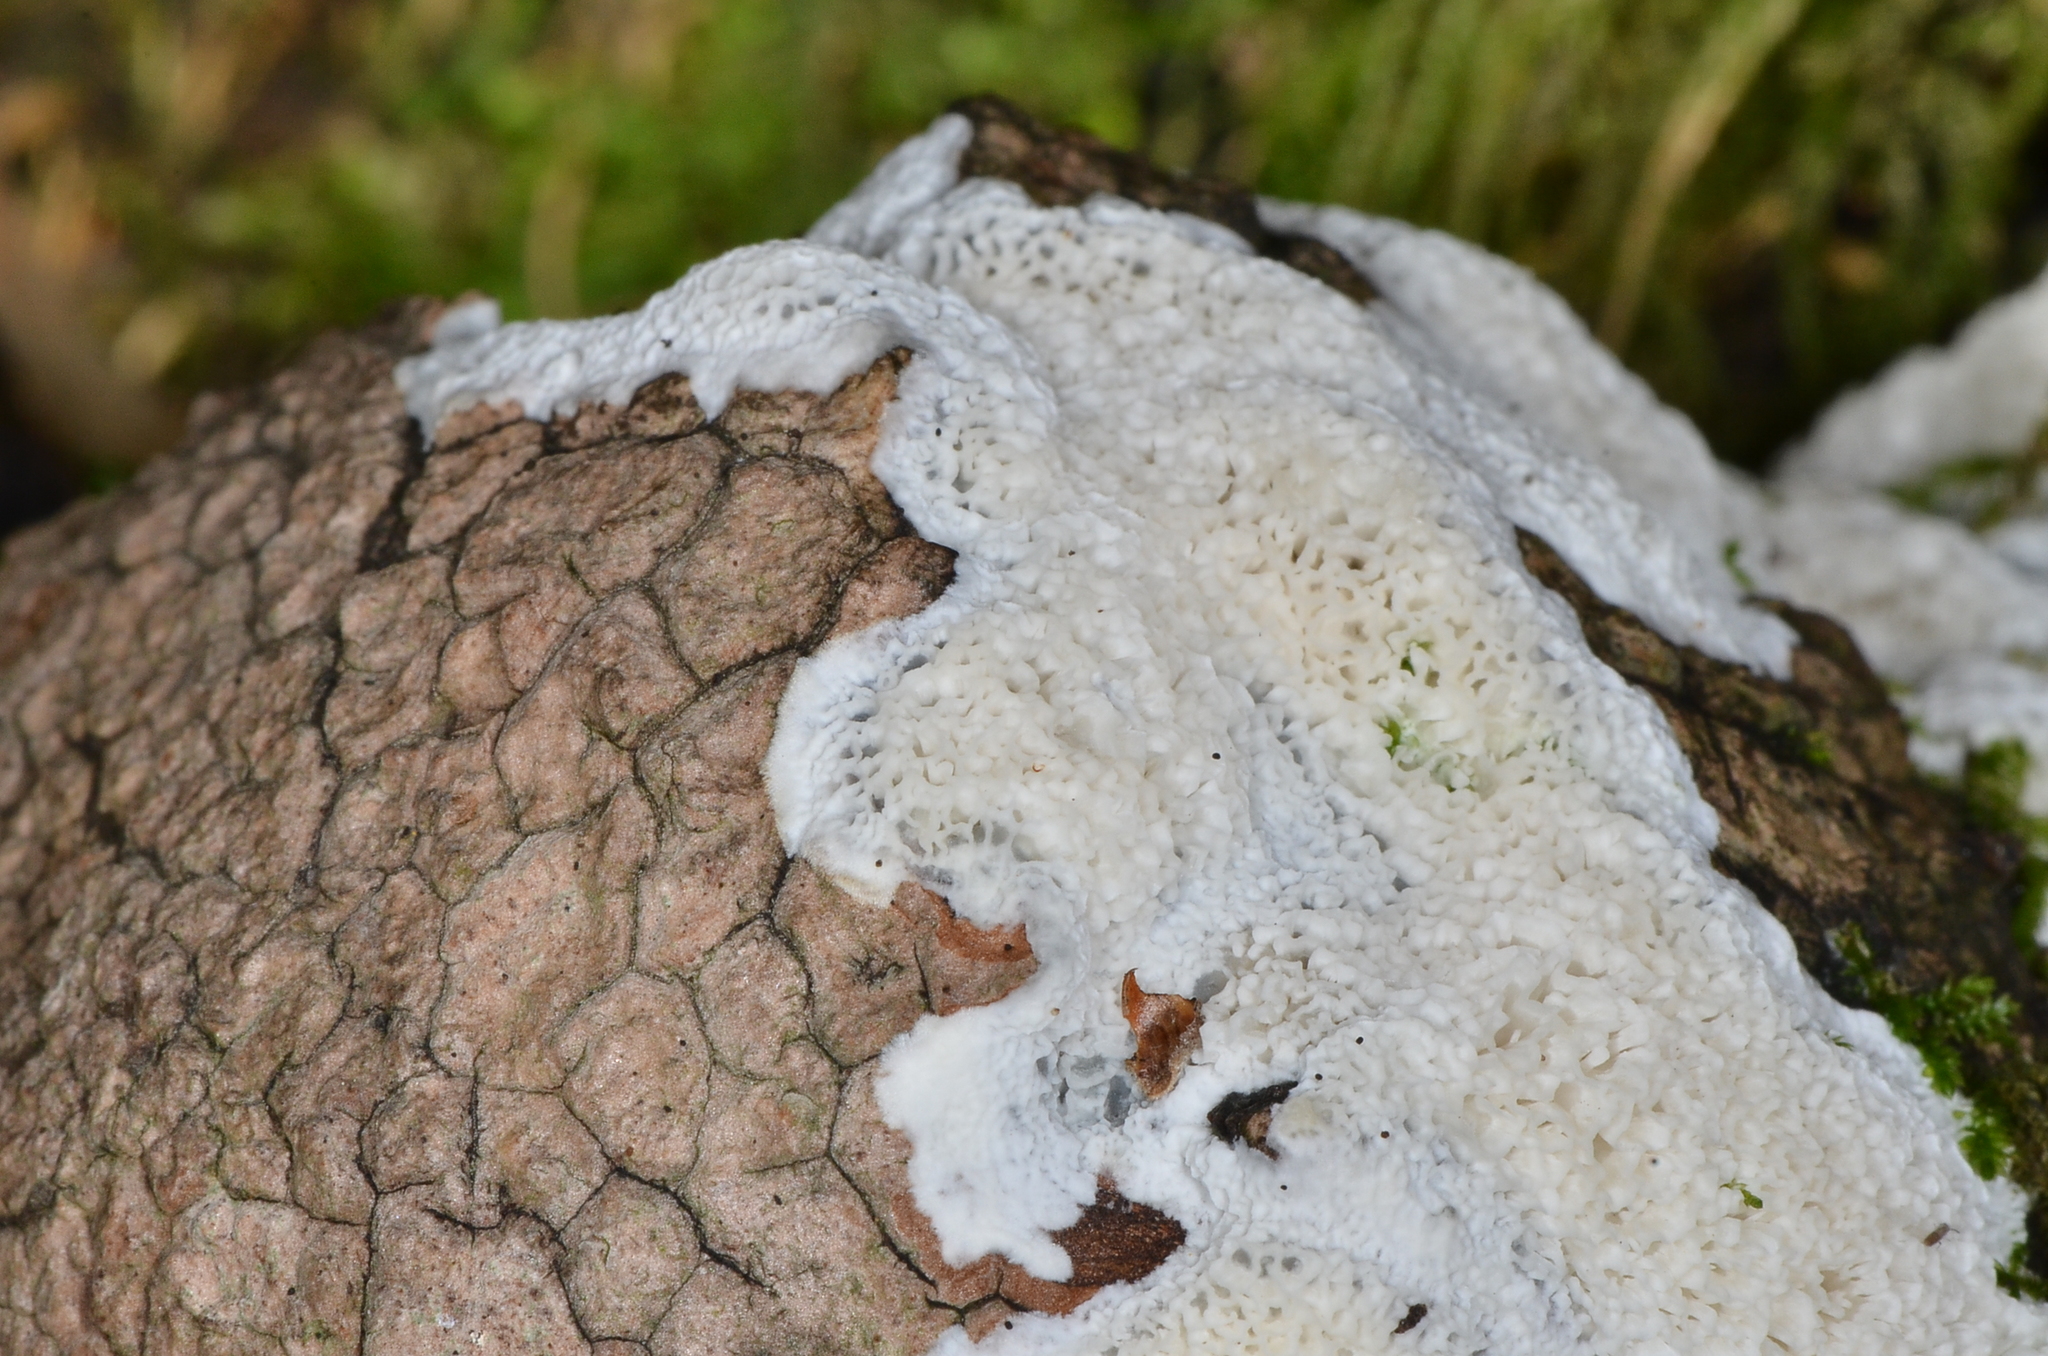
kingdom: Fungi
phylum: Basidiomycota
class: Agaricomycetes
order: Polyporales
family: Irpicaceae
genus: Irpex
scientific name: Irpex latemarginatus
